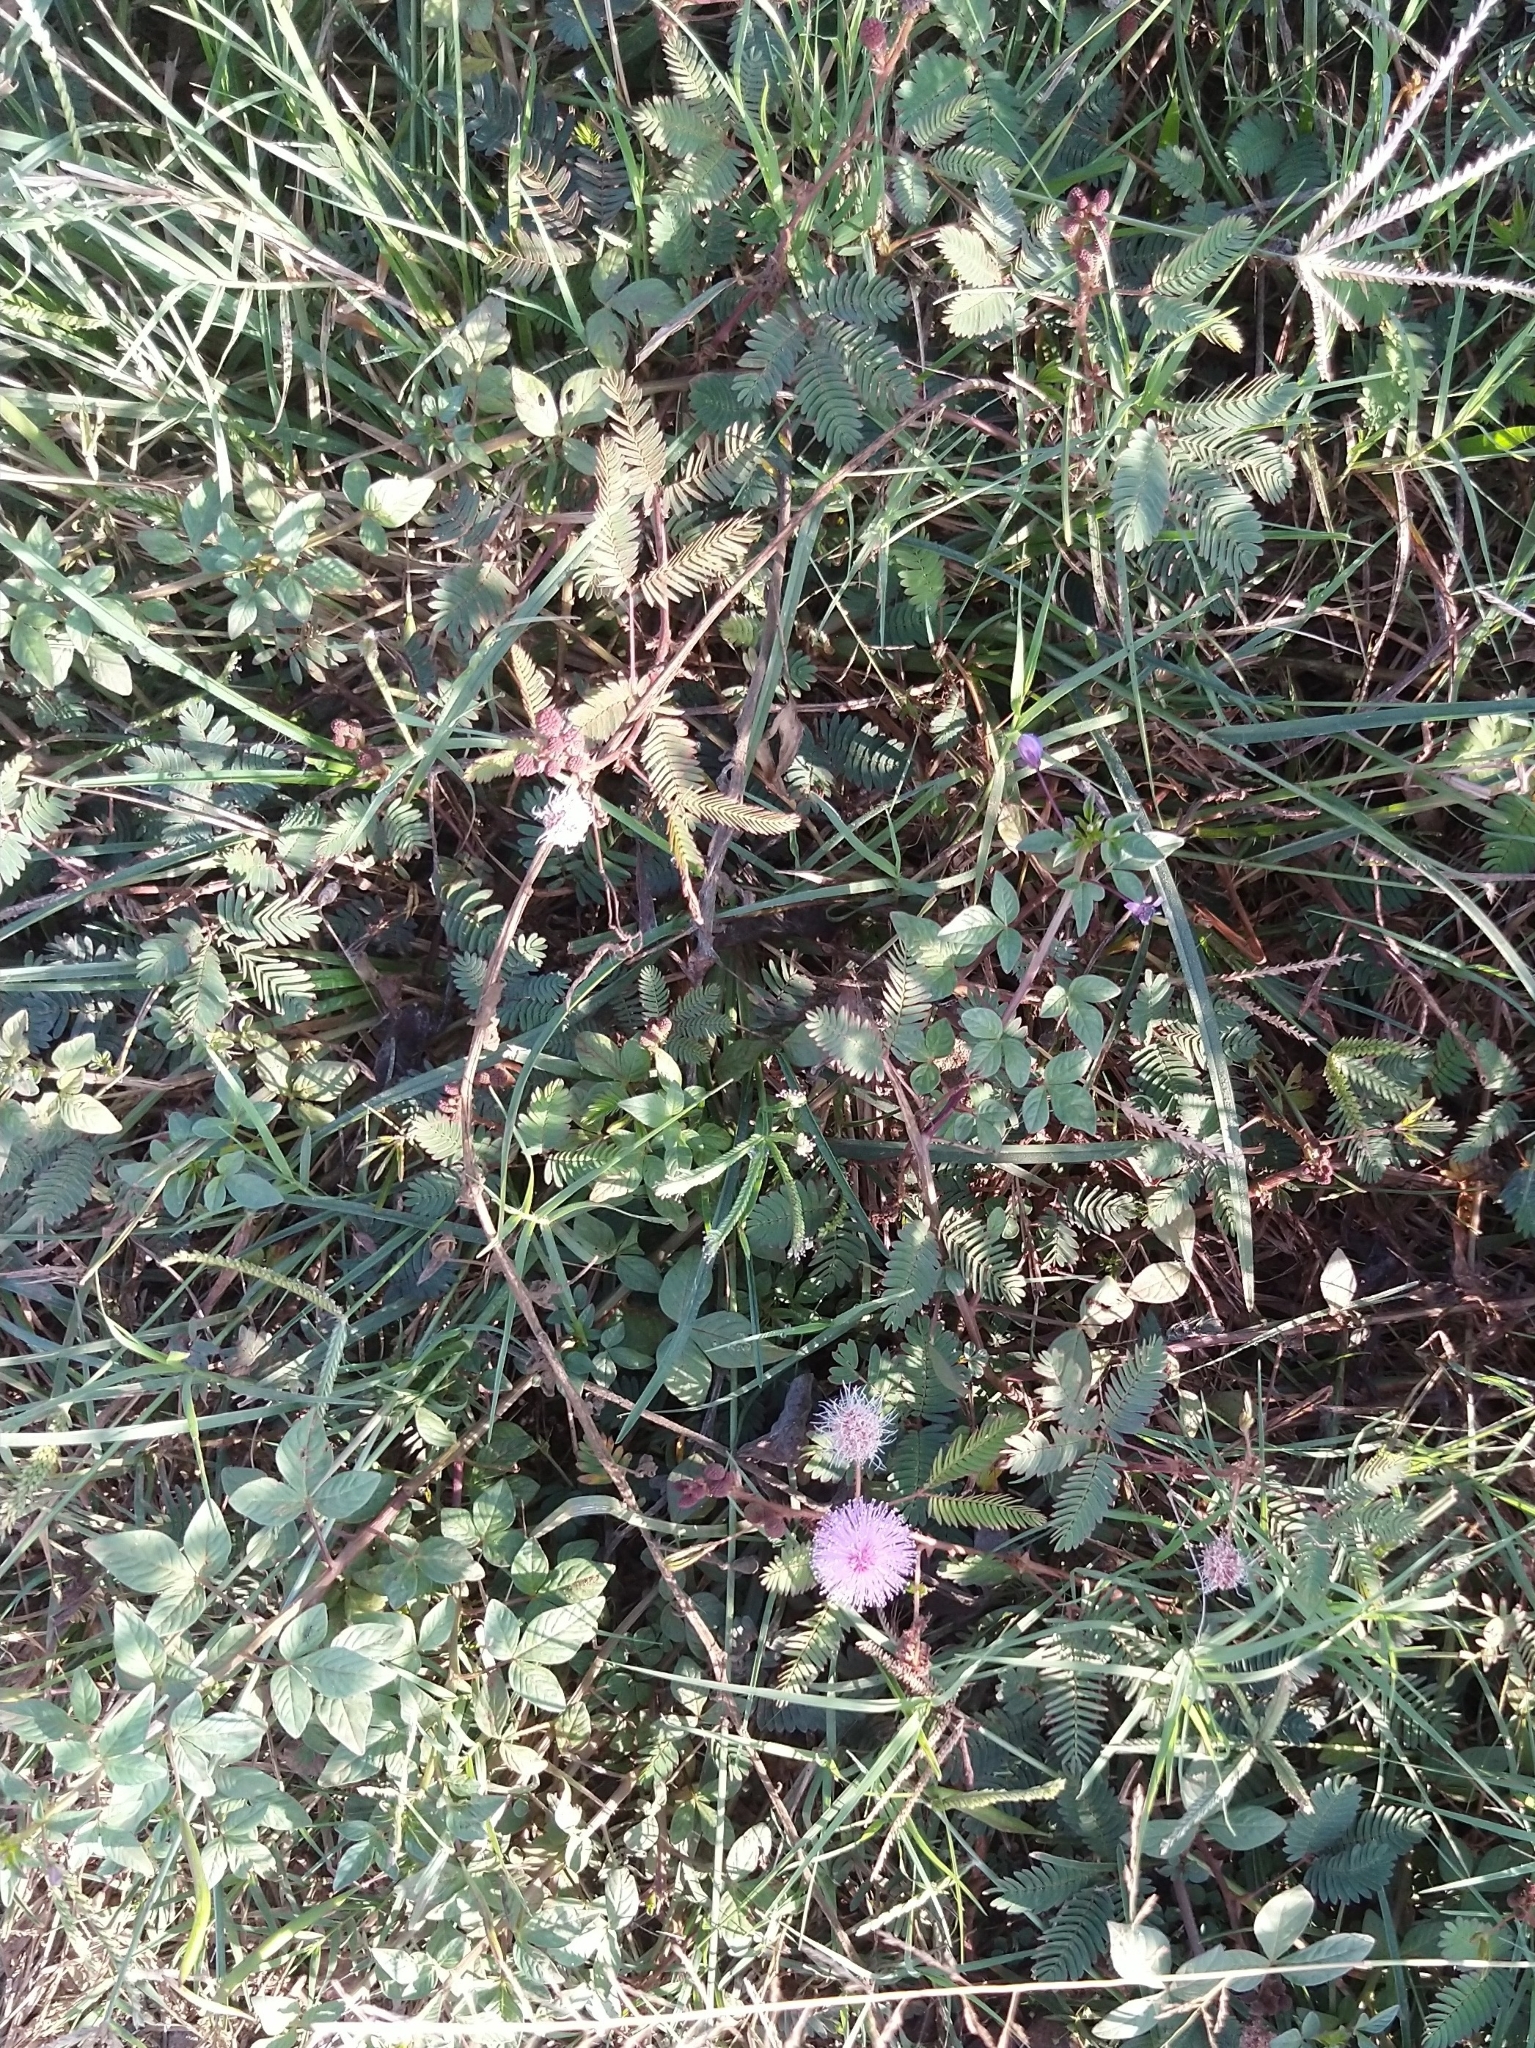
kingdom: Plantae
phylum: Tracheophyta
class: Magnoliopsida
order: Fabales
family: Fabaceae
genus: Mimosa
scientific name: Mimosa pudica
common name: Sensitive plant
